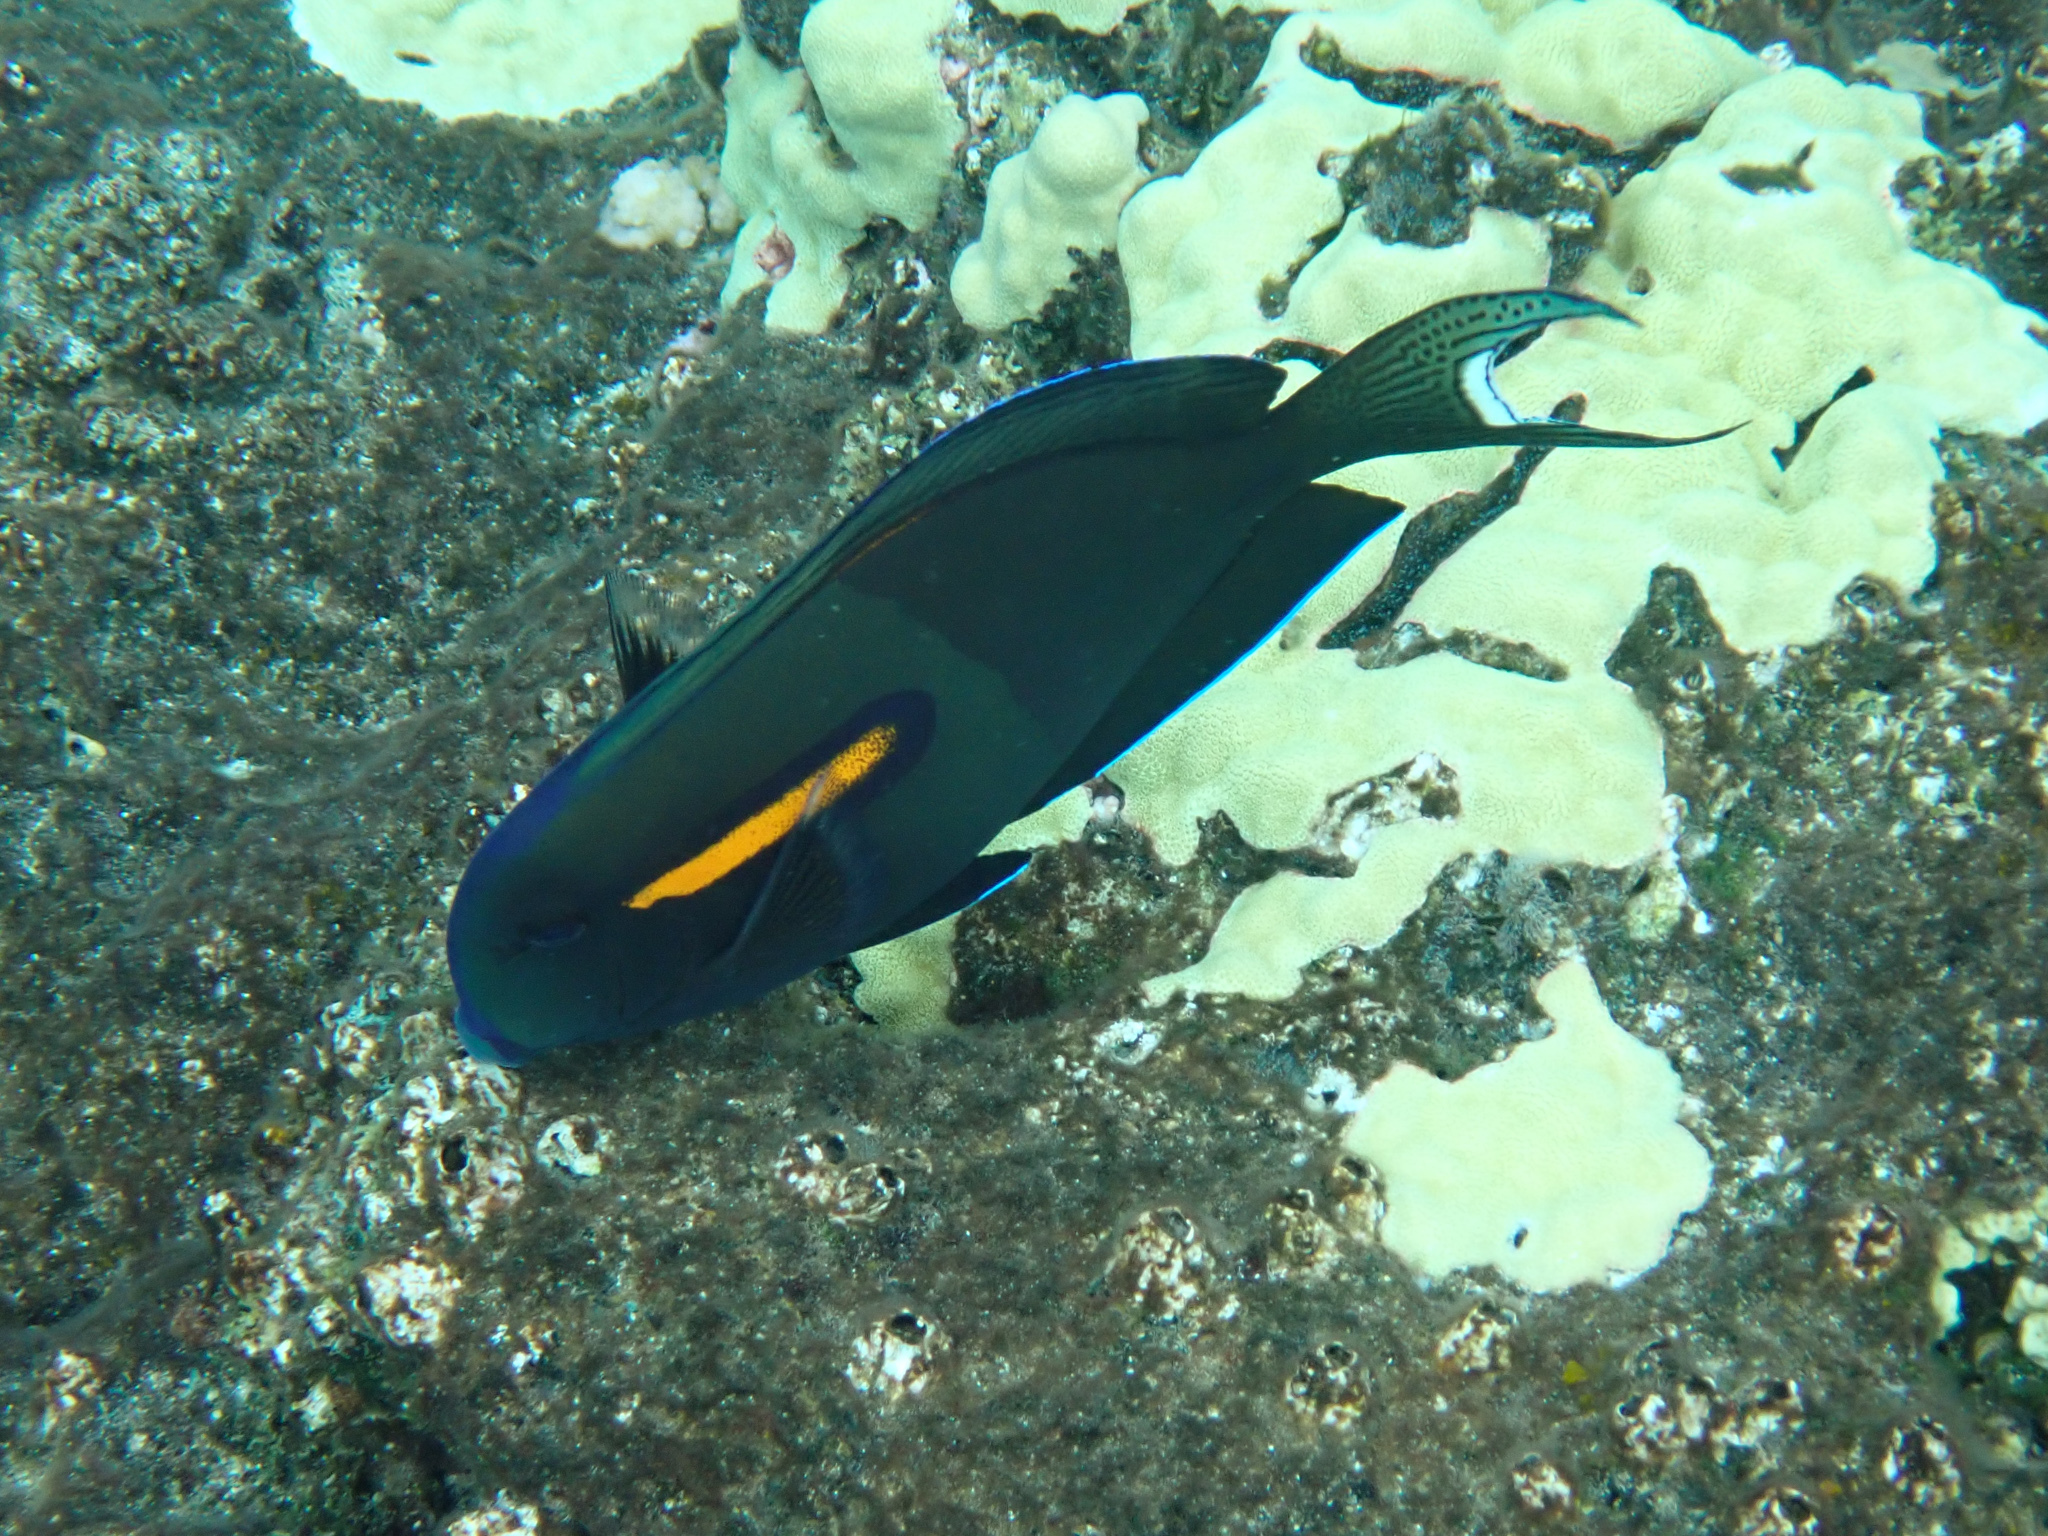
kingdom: Animalia
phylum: Chordata
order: Perciformes
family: Acanthuridae
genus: Acanthurus
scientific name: Acanthurus olivaceus
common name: Gendarme fish
